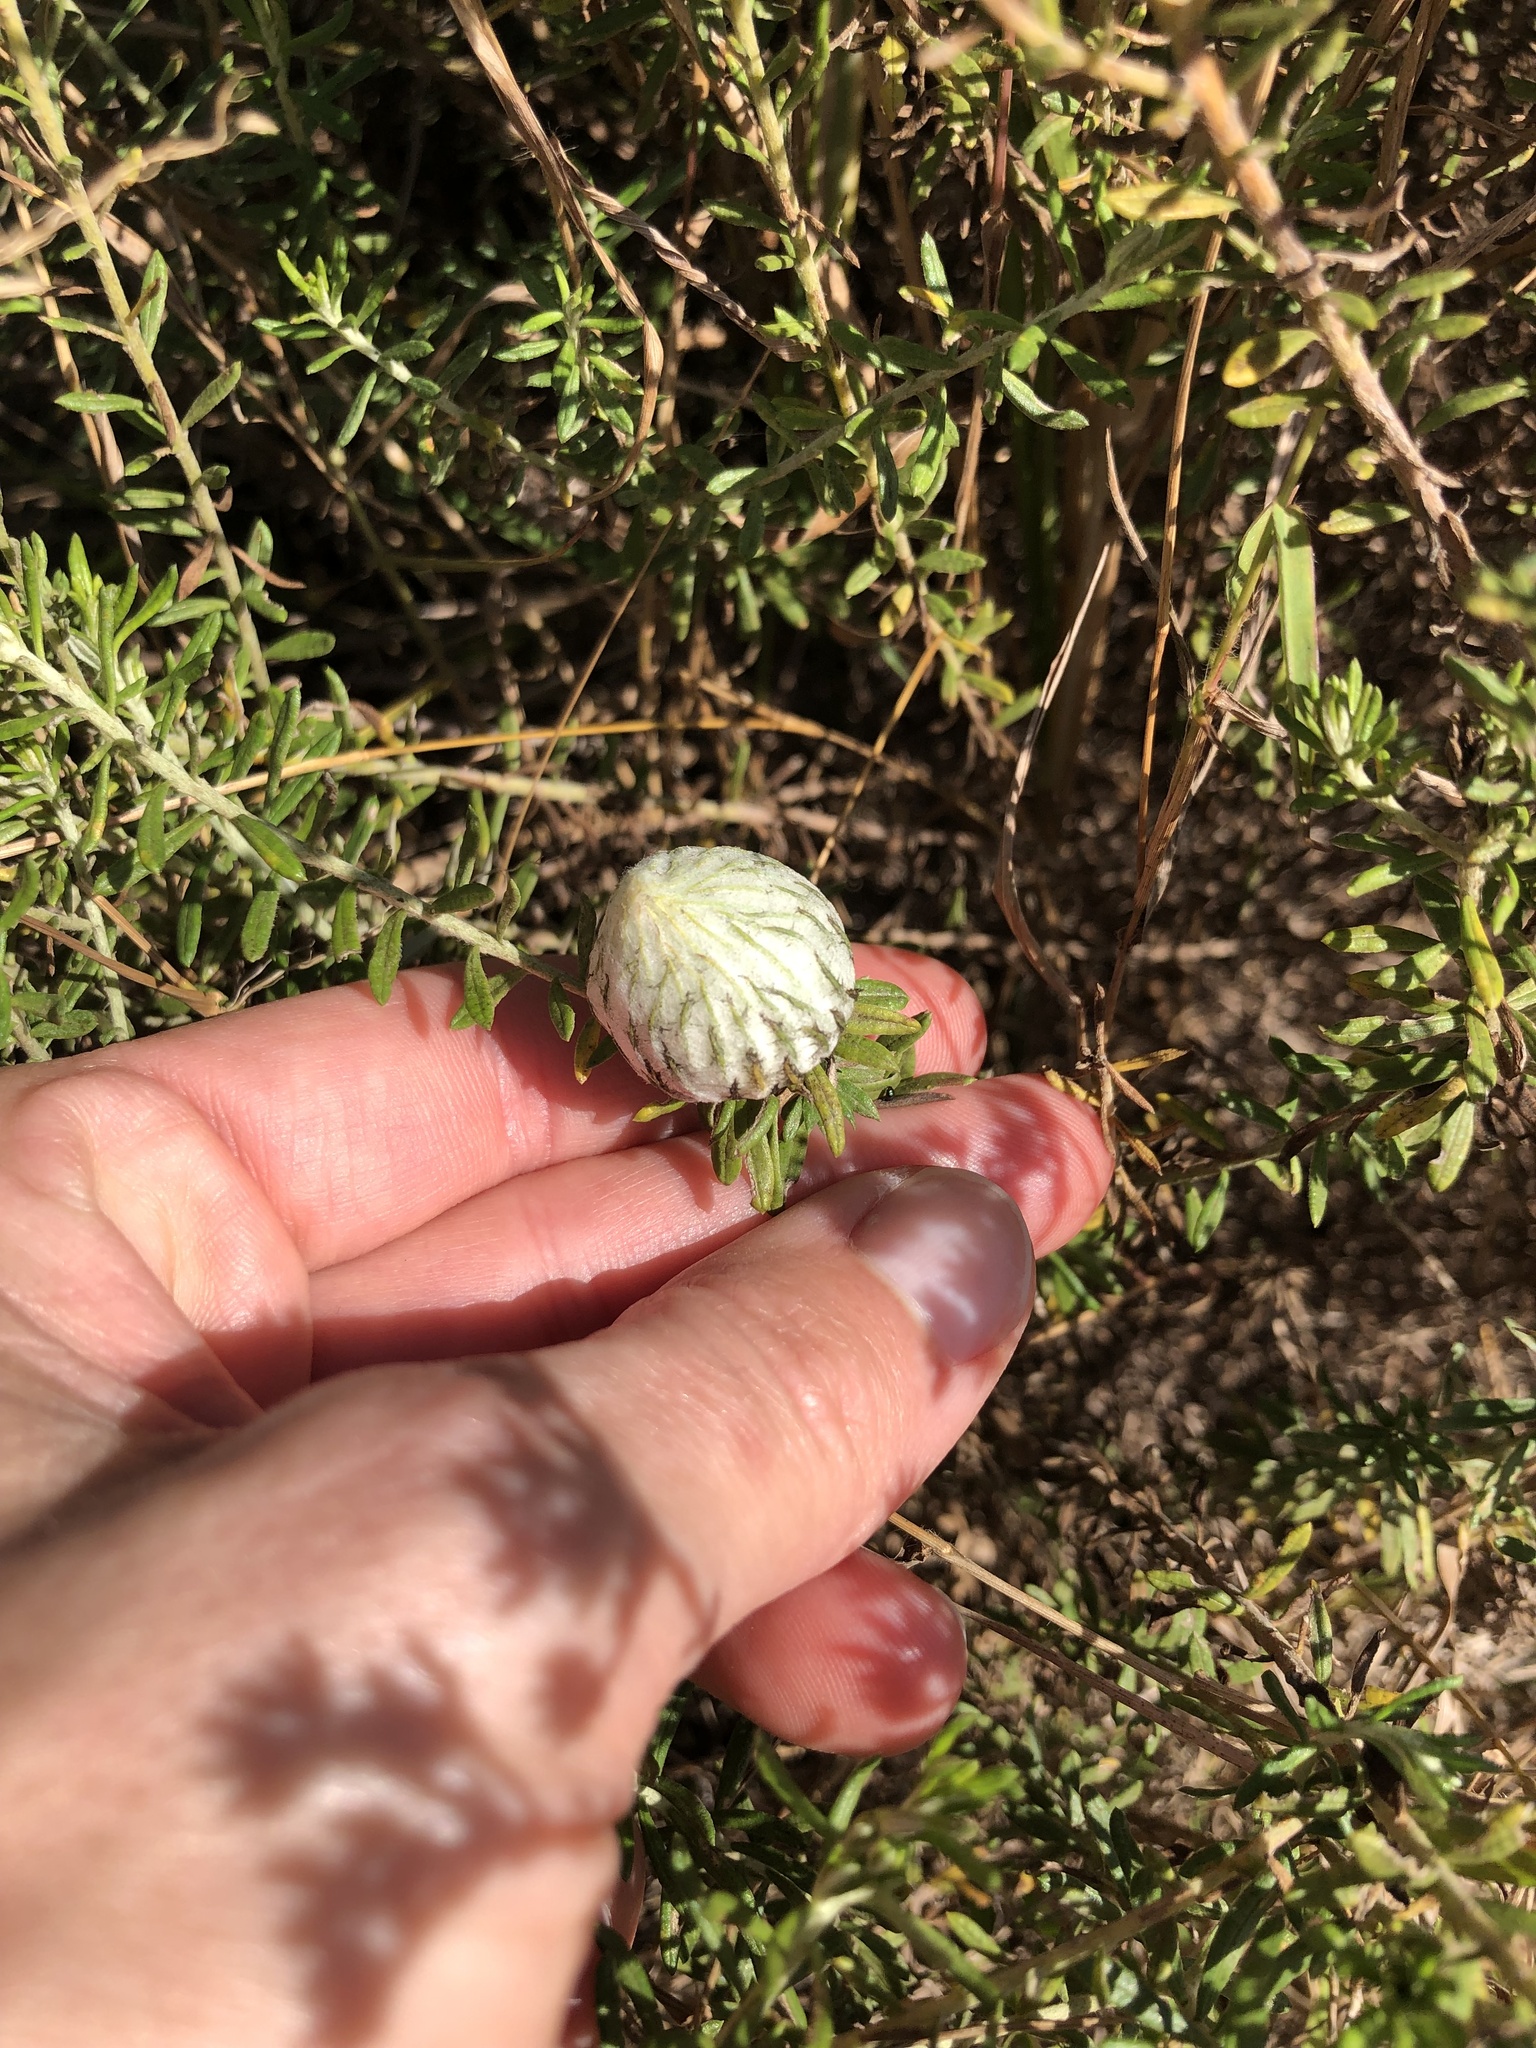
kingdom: Plantae
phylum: Tracheophyta
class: Magnoliopsida
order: Asterales
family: Asteraceae
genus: Helichrysum
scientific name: Helichrysum kraussii
